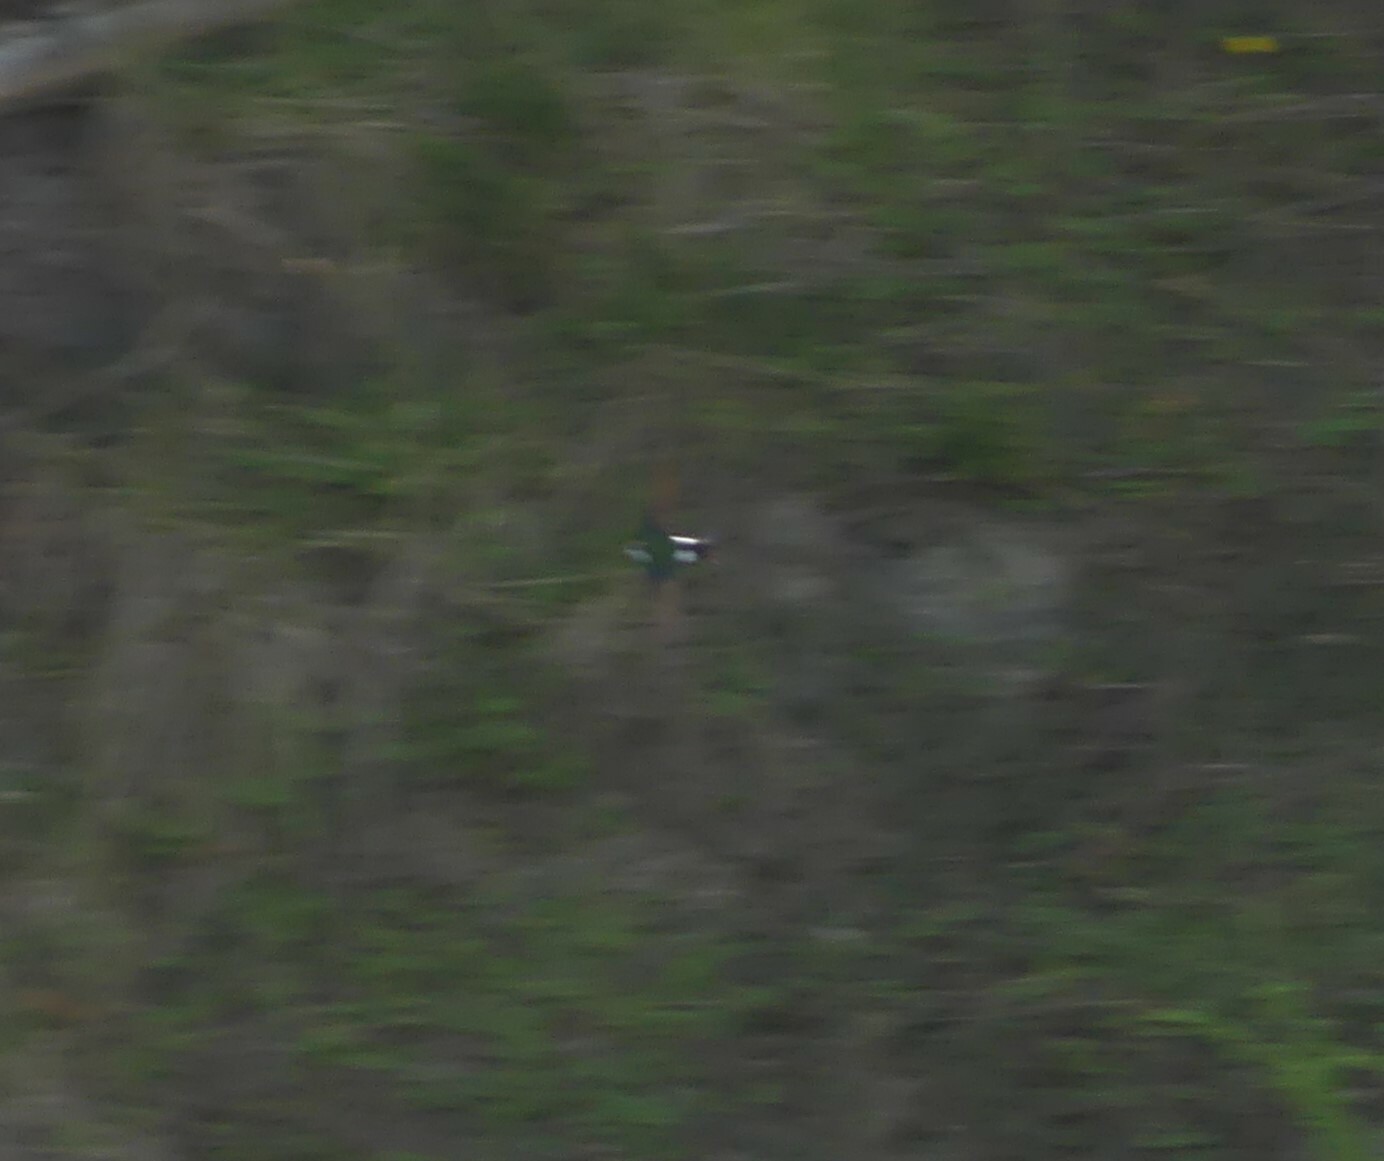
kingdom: Animalia
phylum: Chordata
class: Aves
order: Passeriformes
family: Hirundinidae
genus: Tachycineta
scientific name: Tachycineta thalassina
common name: Violet-green swallow
